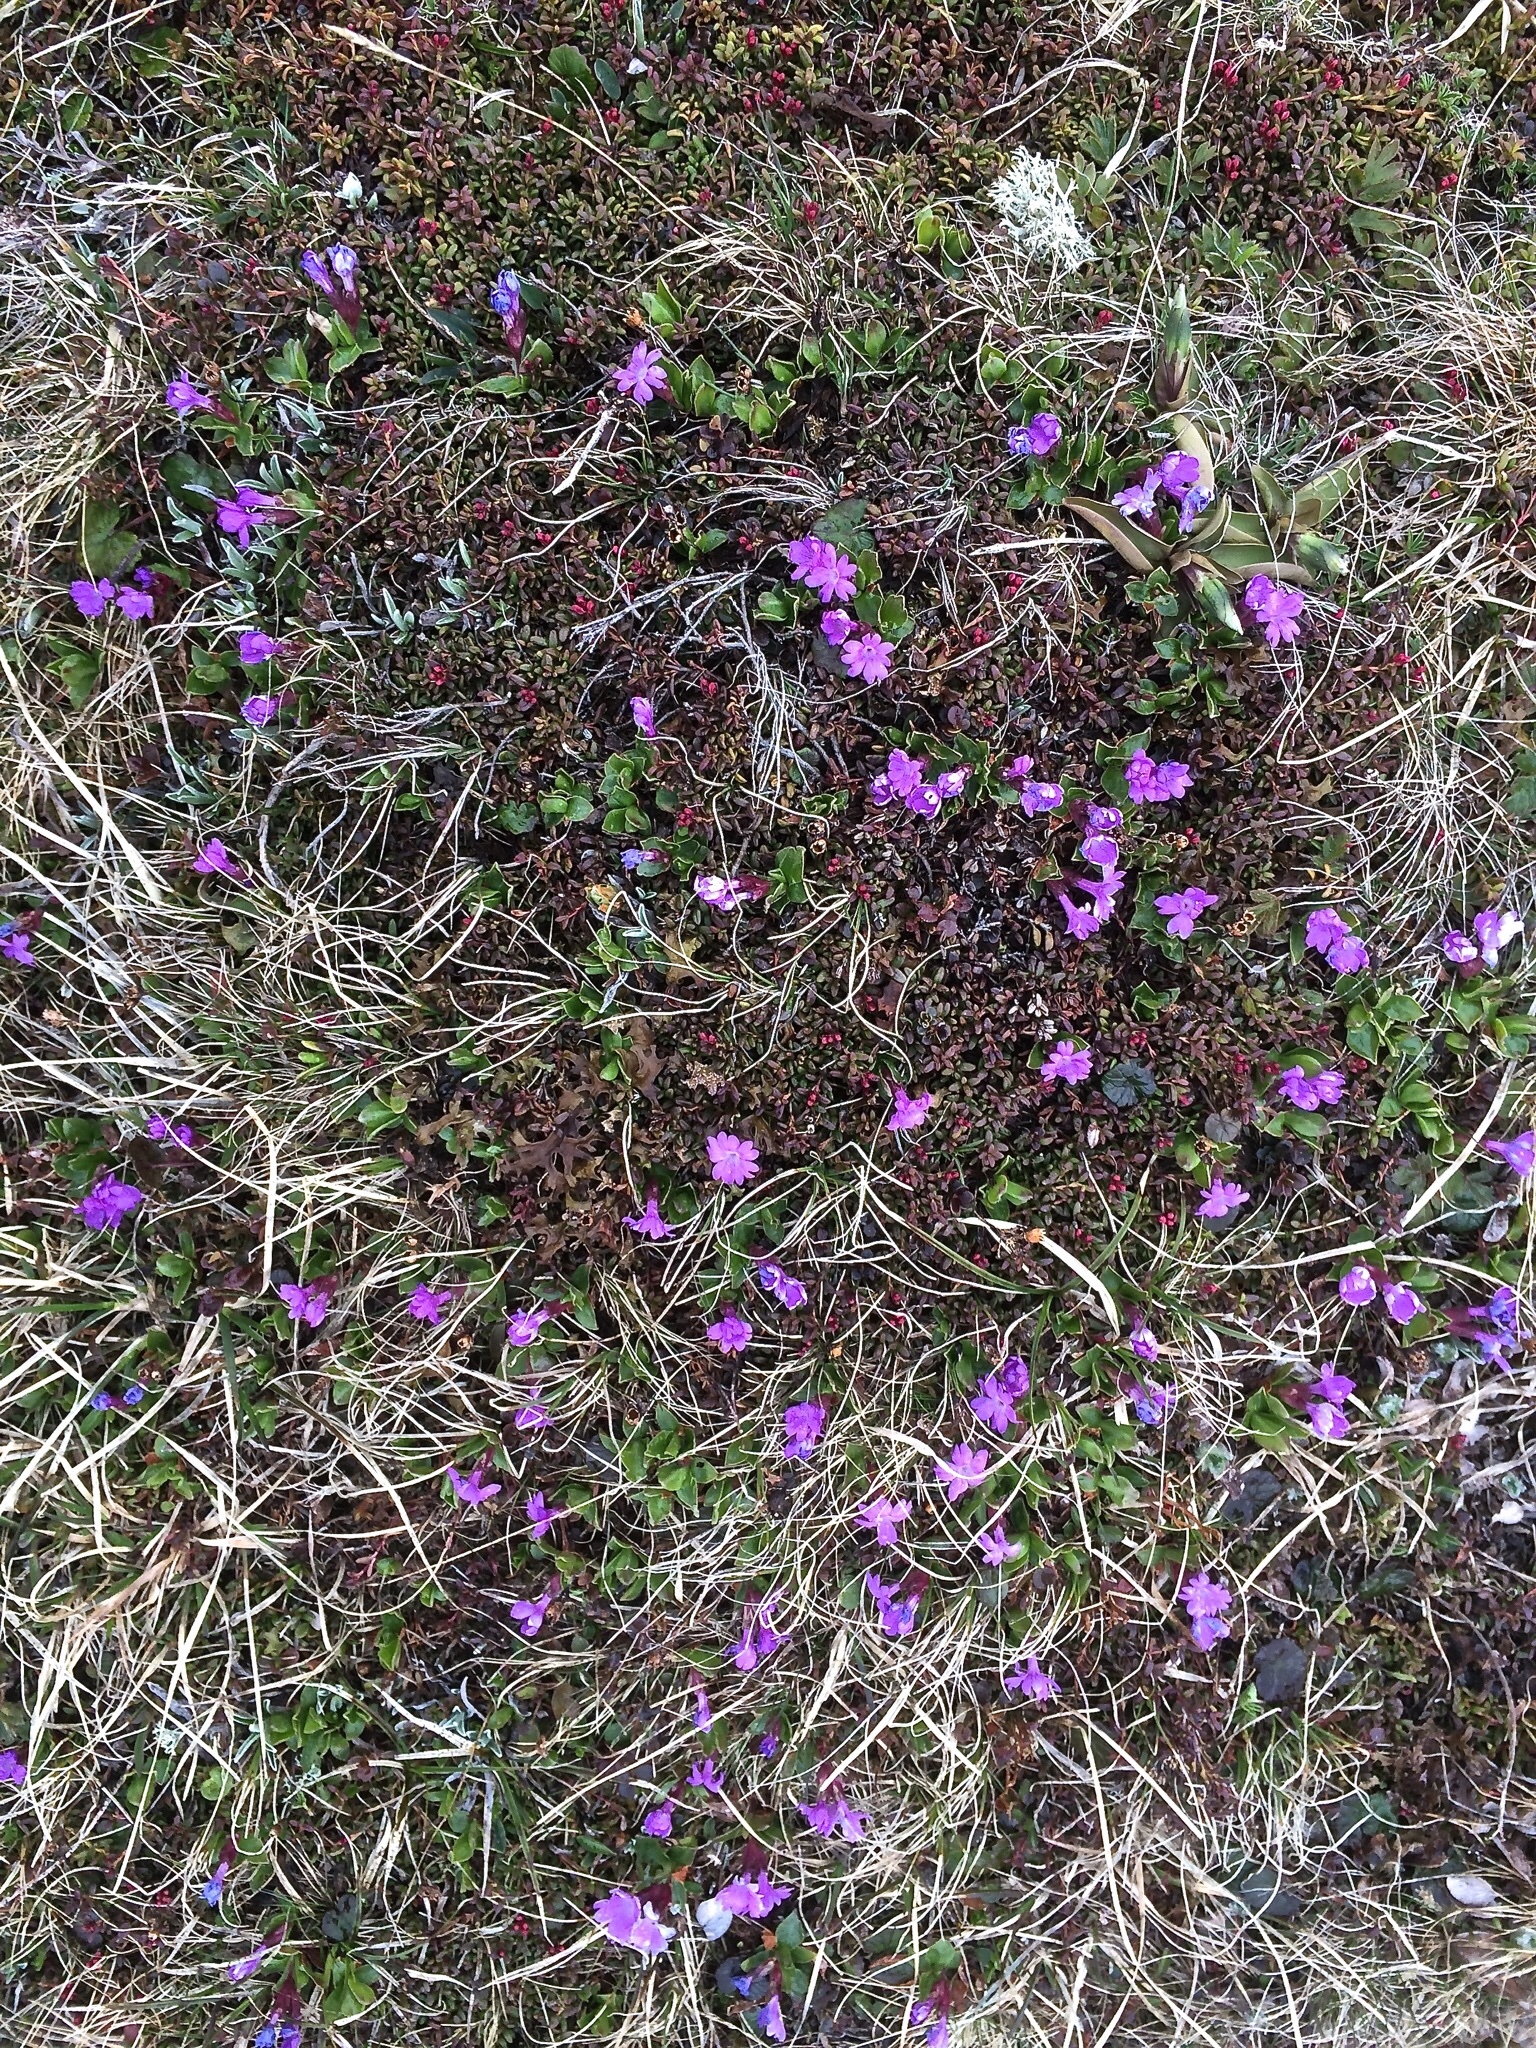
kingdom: Plantae
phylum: Tracheophyta
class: Magnoliopsida
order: Ericales
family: Primulaceae
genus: Primula
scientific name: Primula integrifolia
